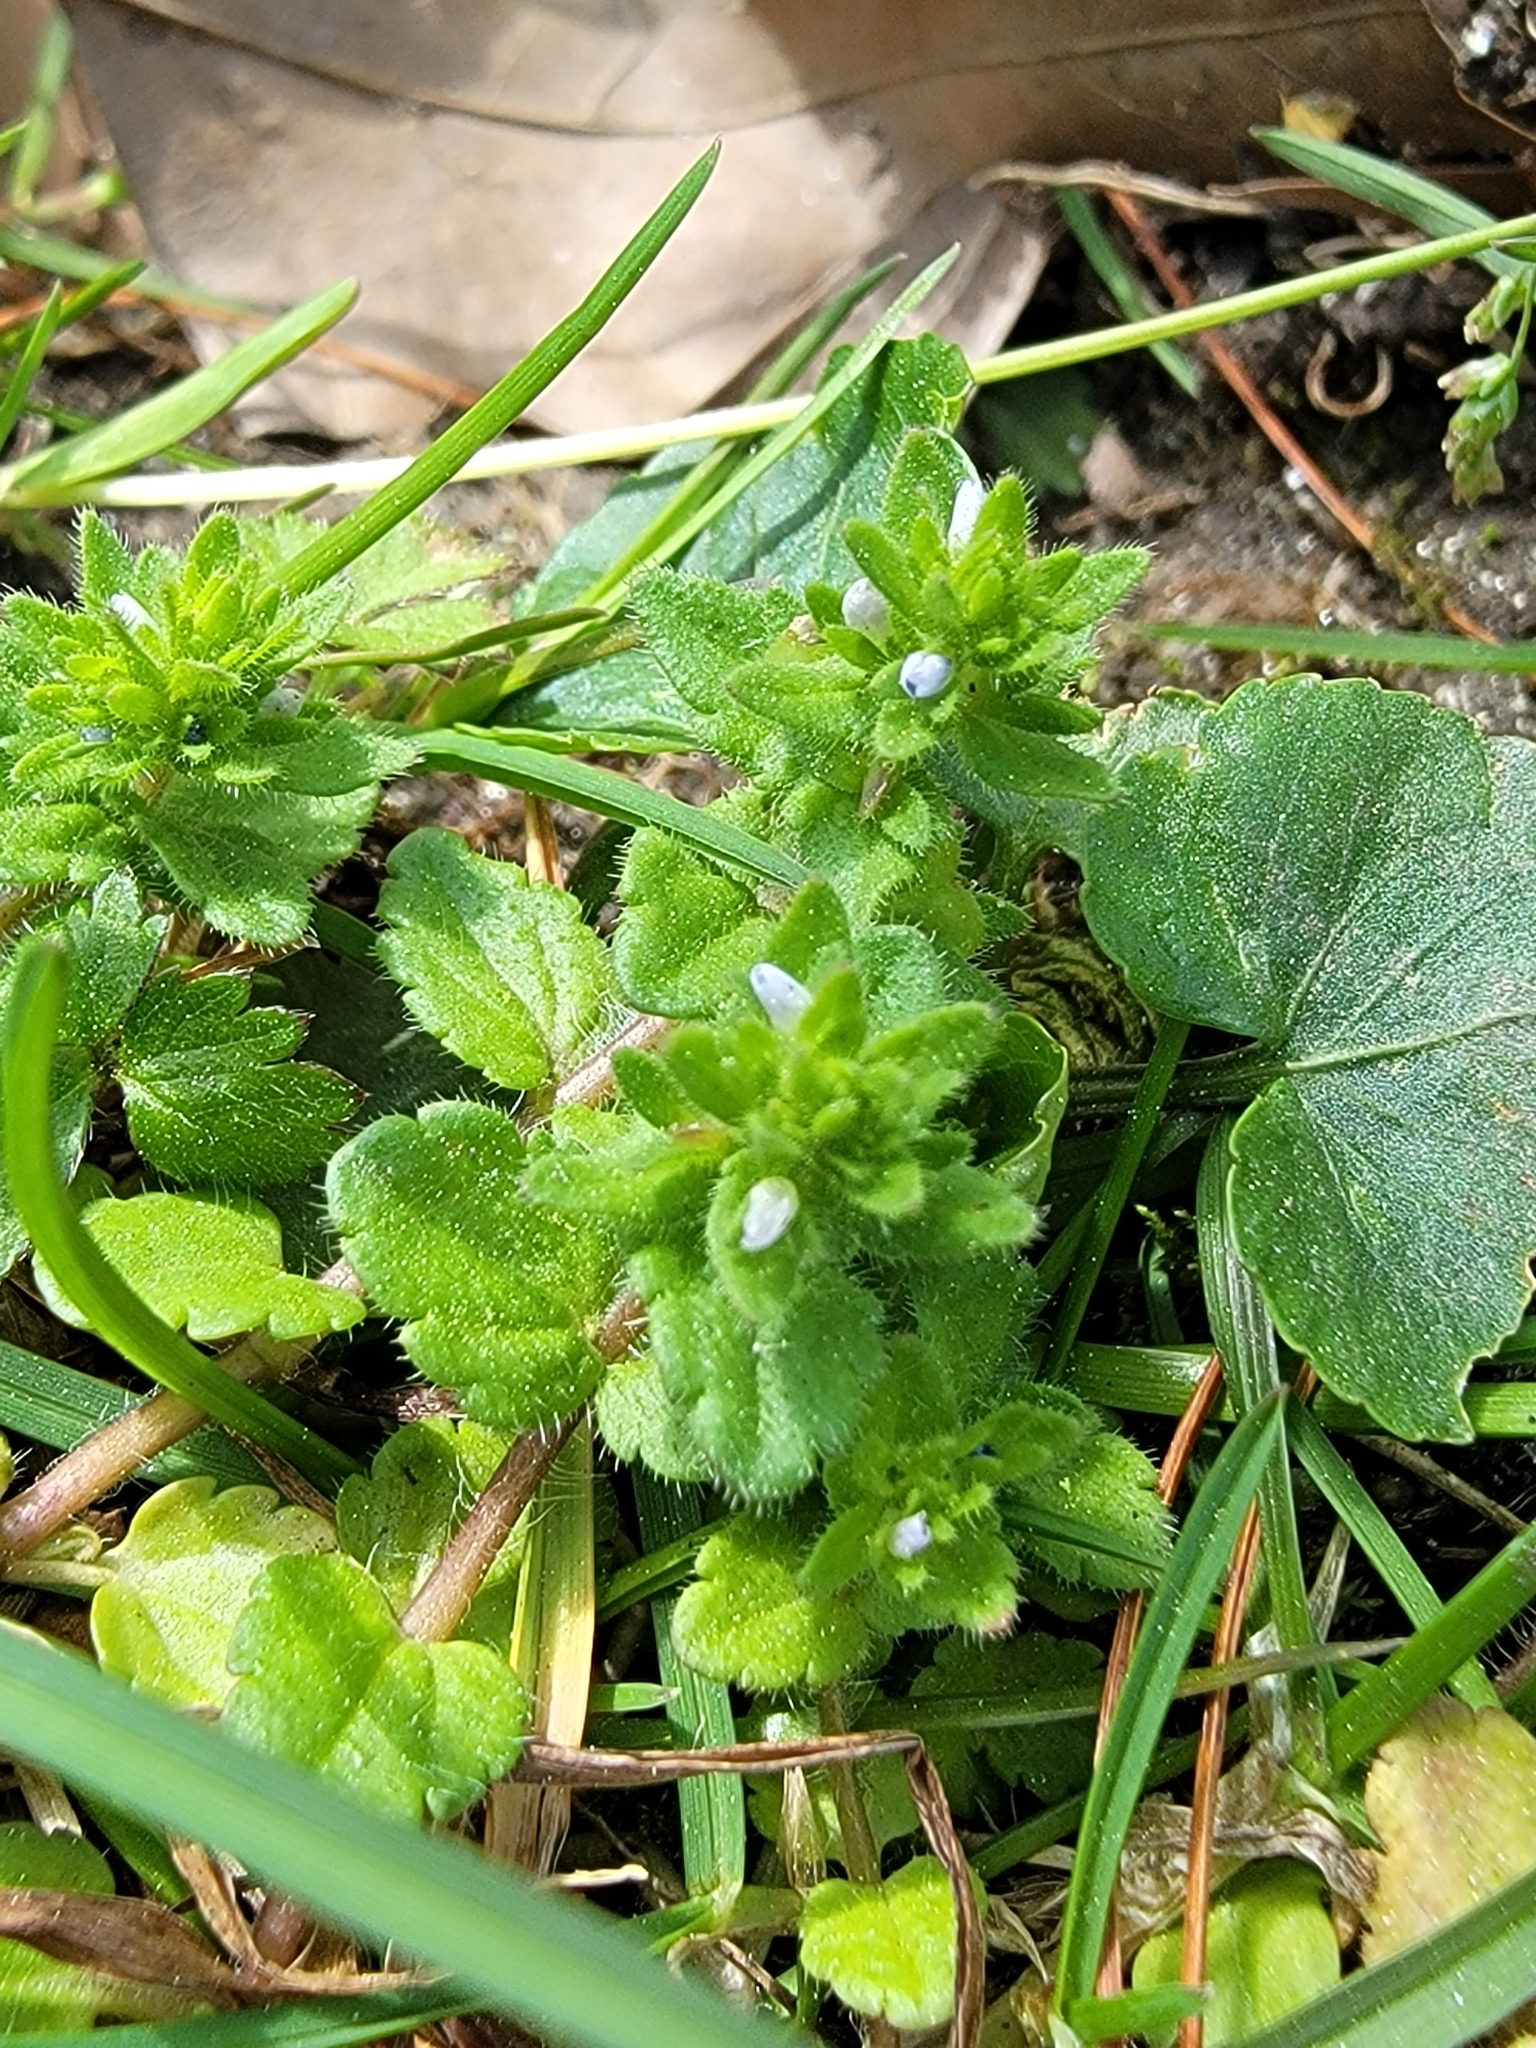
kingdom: Plantae
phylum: Tracheophyta
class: Magnoliopsida
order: Lamiales
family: Plantaginaceae
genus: Veronica
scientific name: Veronica arvensis
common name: Corn speedwell
